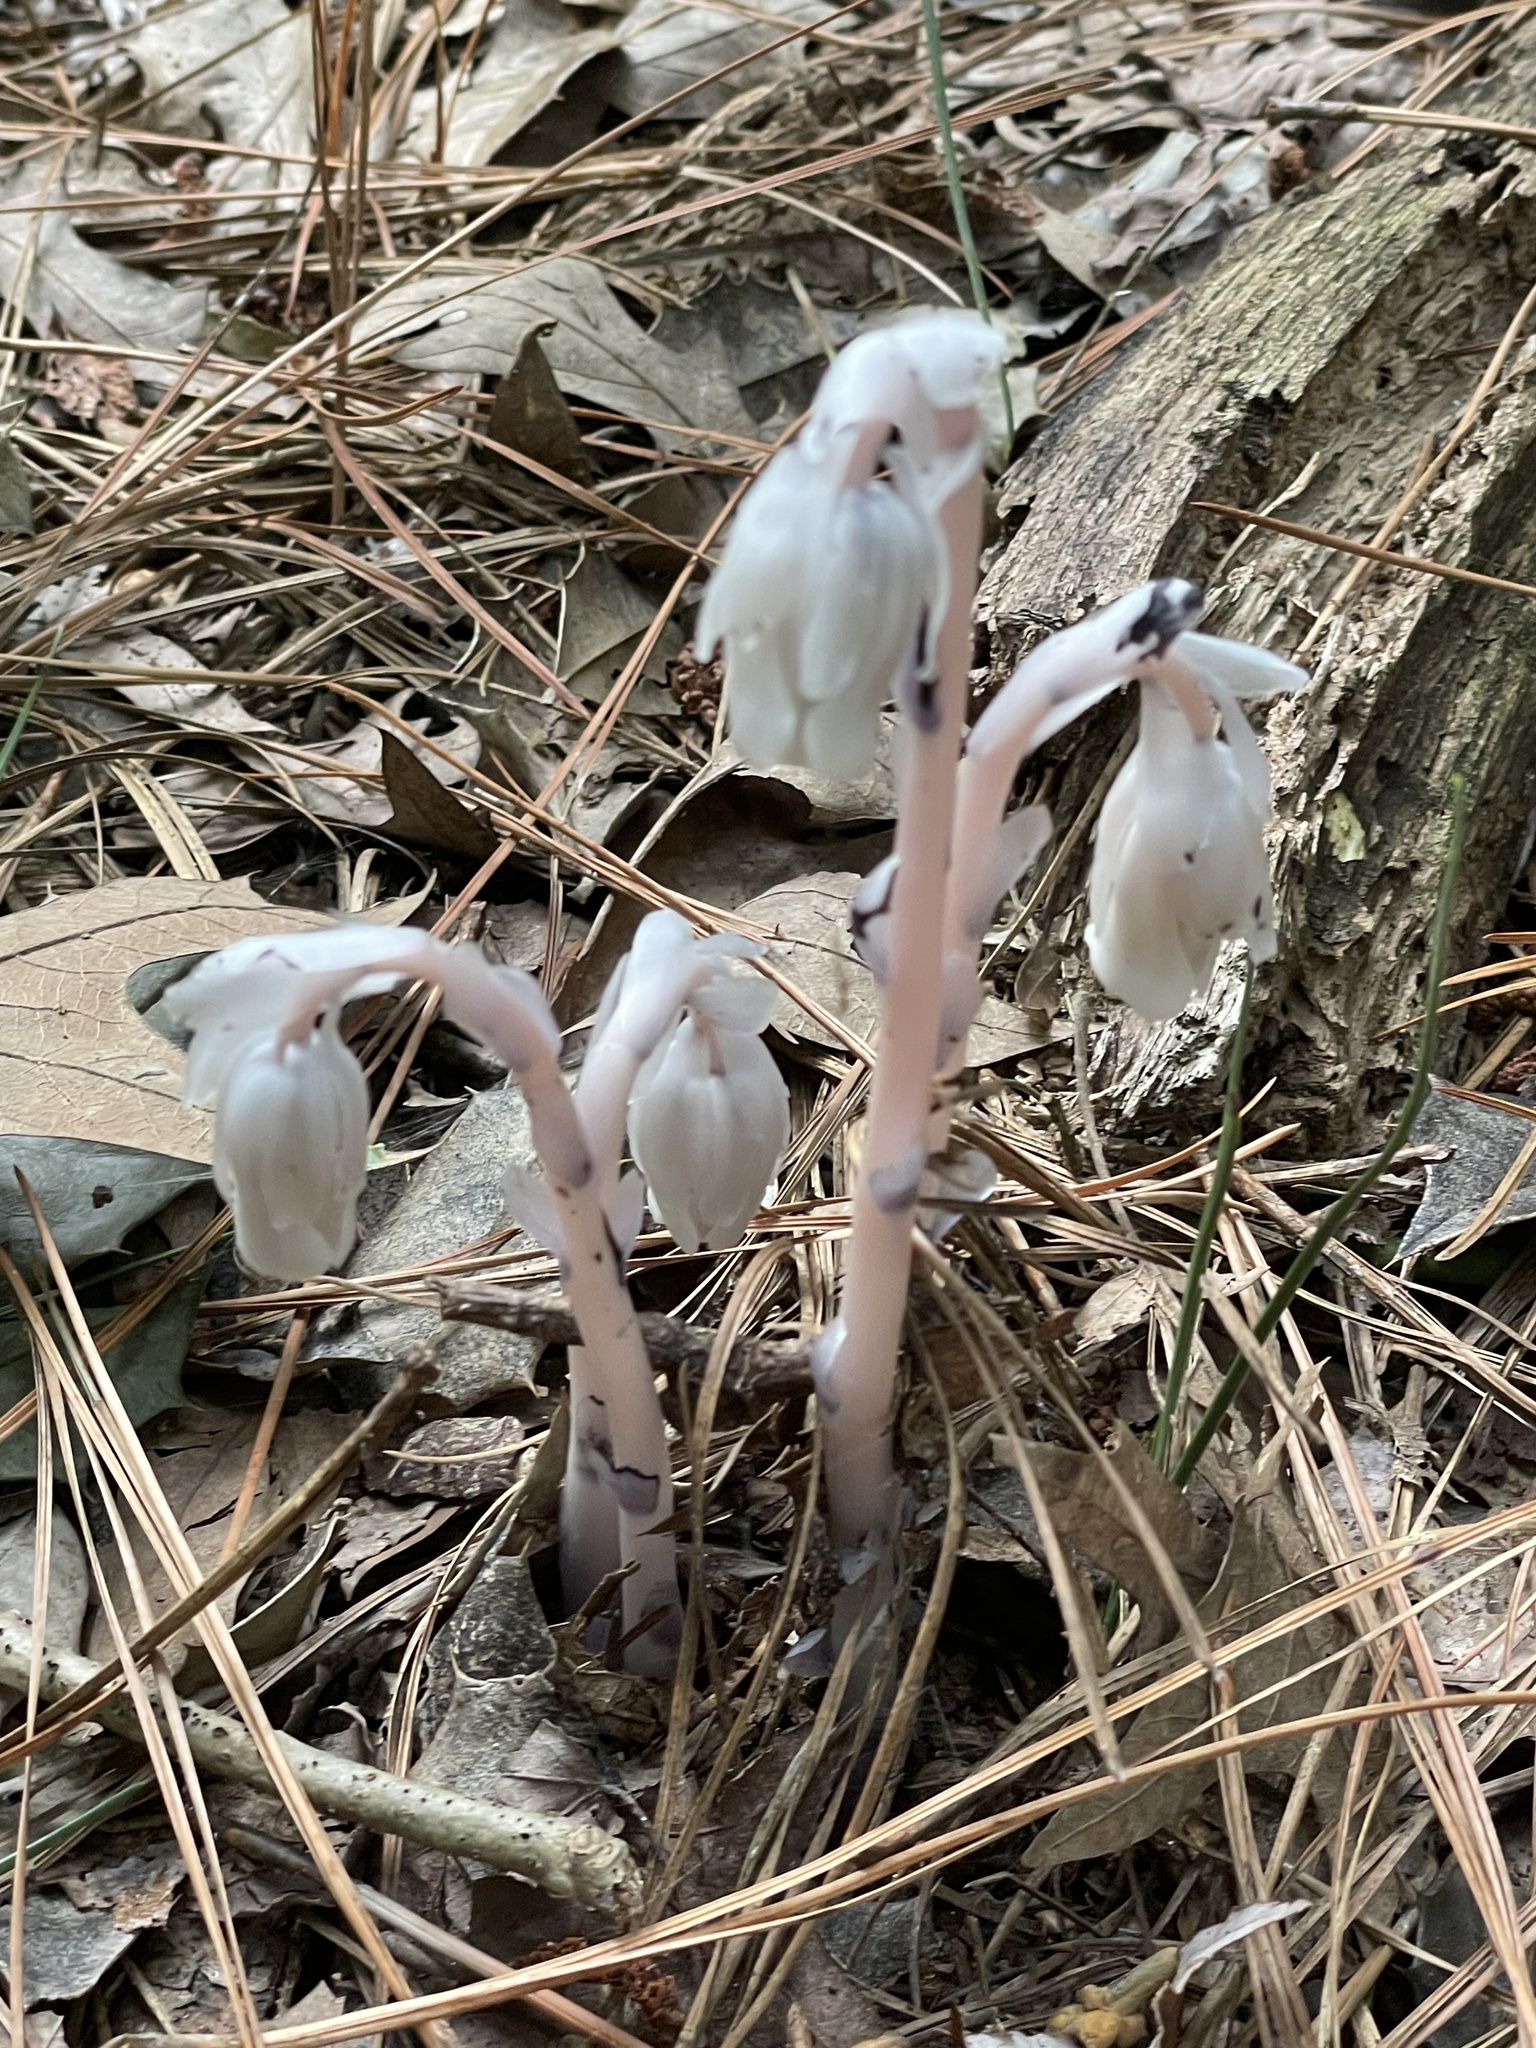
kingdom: Plantae
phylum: Tracheophyta
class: Magnoliopsida
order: Ericales
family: Ericaceae
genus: Monotropa
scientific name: Monotropa uniflora
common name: Convulsion root
